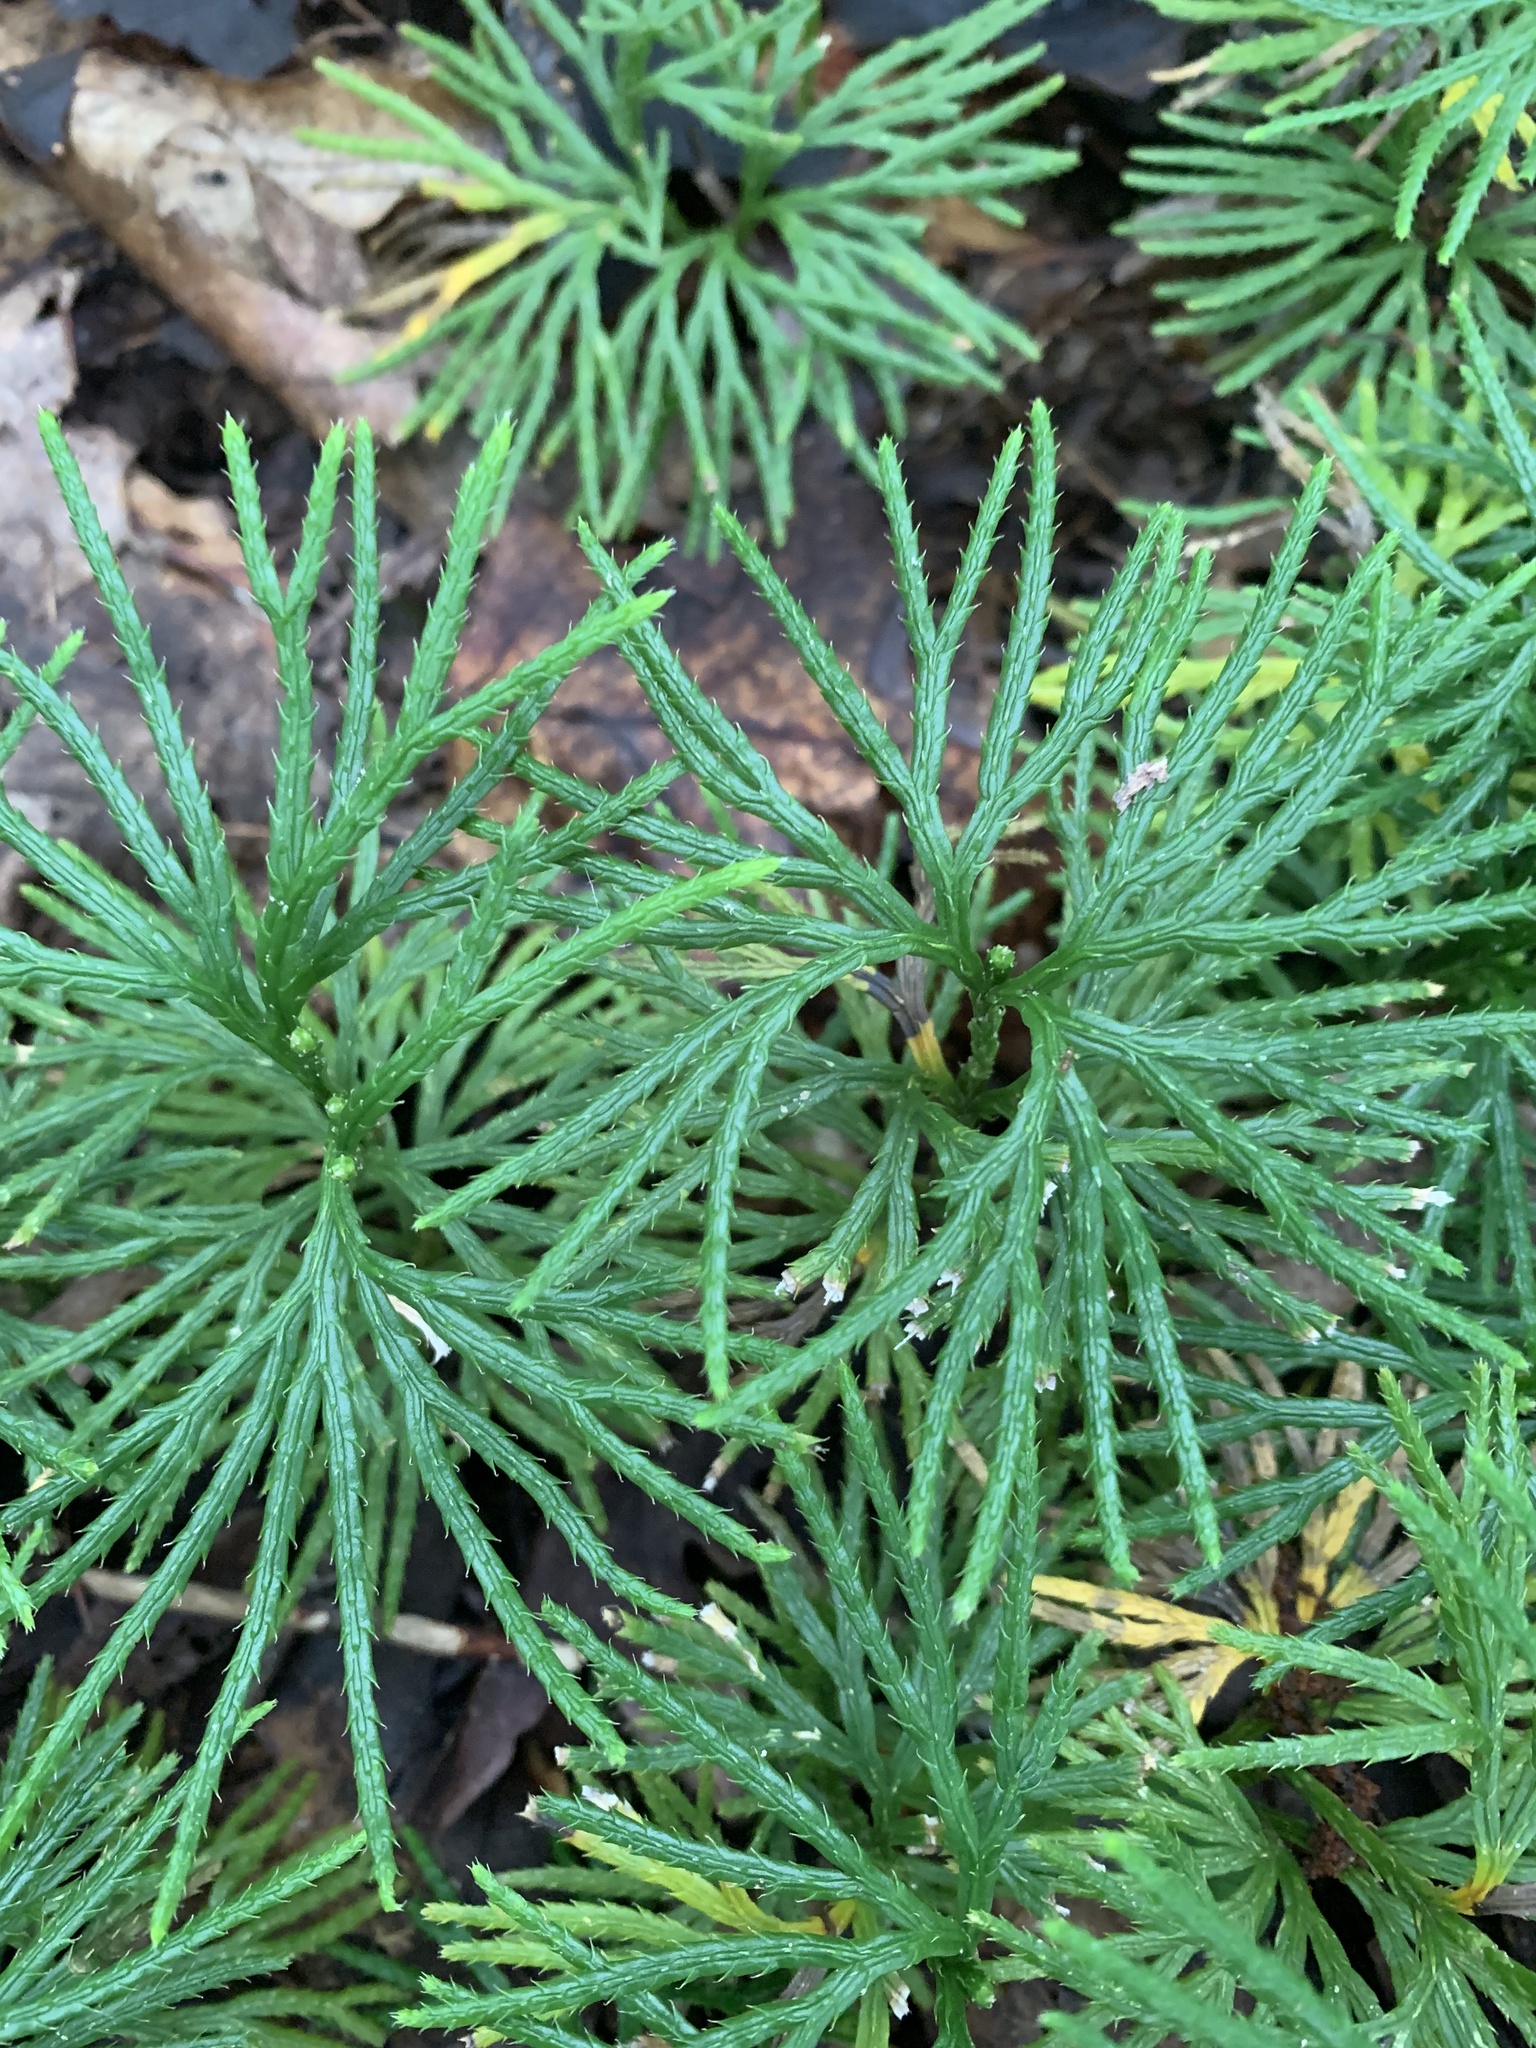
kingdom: Plantae
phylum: Tracheophyta
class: Lycopodiopsida
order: Lycopodiales
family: Lycopodiaceae
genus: Diphasiastrum
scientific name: Diphasiastrum digitatum
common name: Southern running-pine
